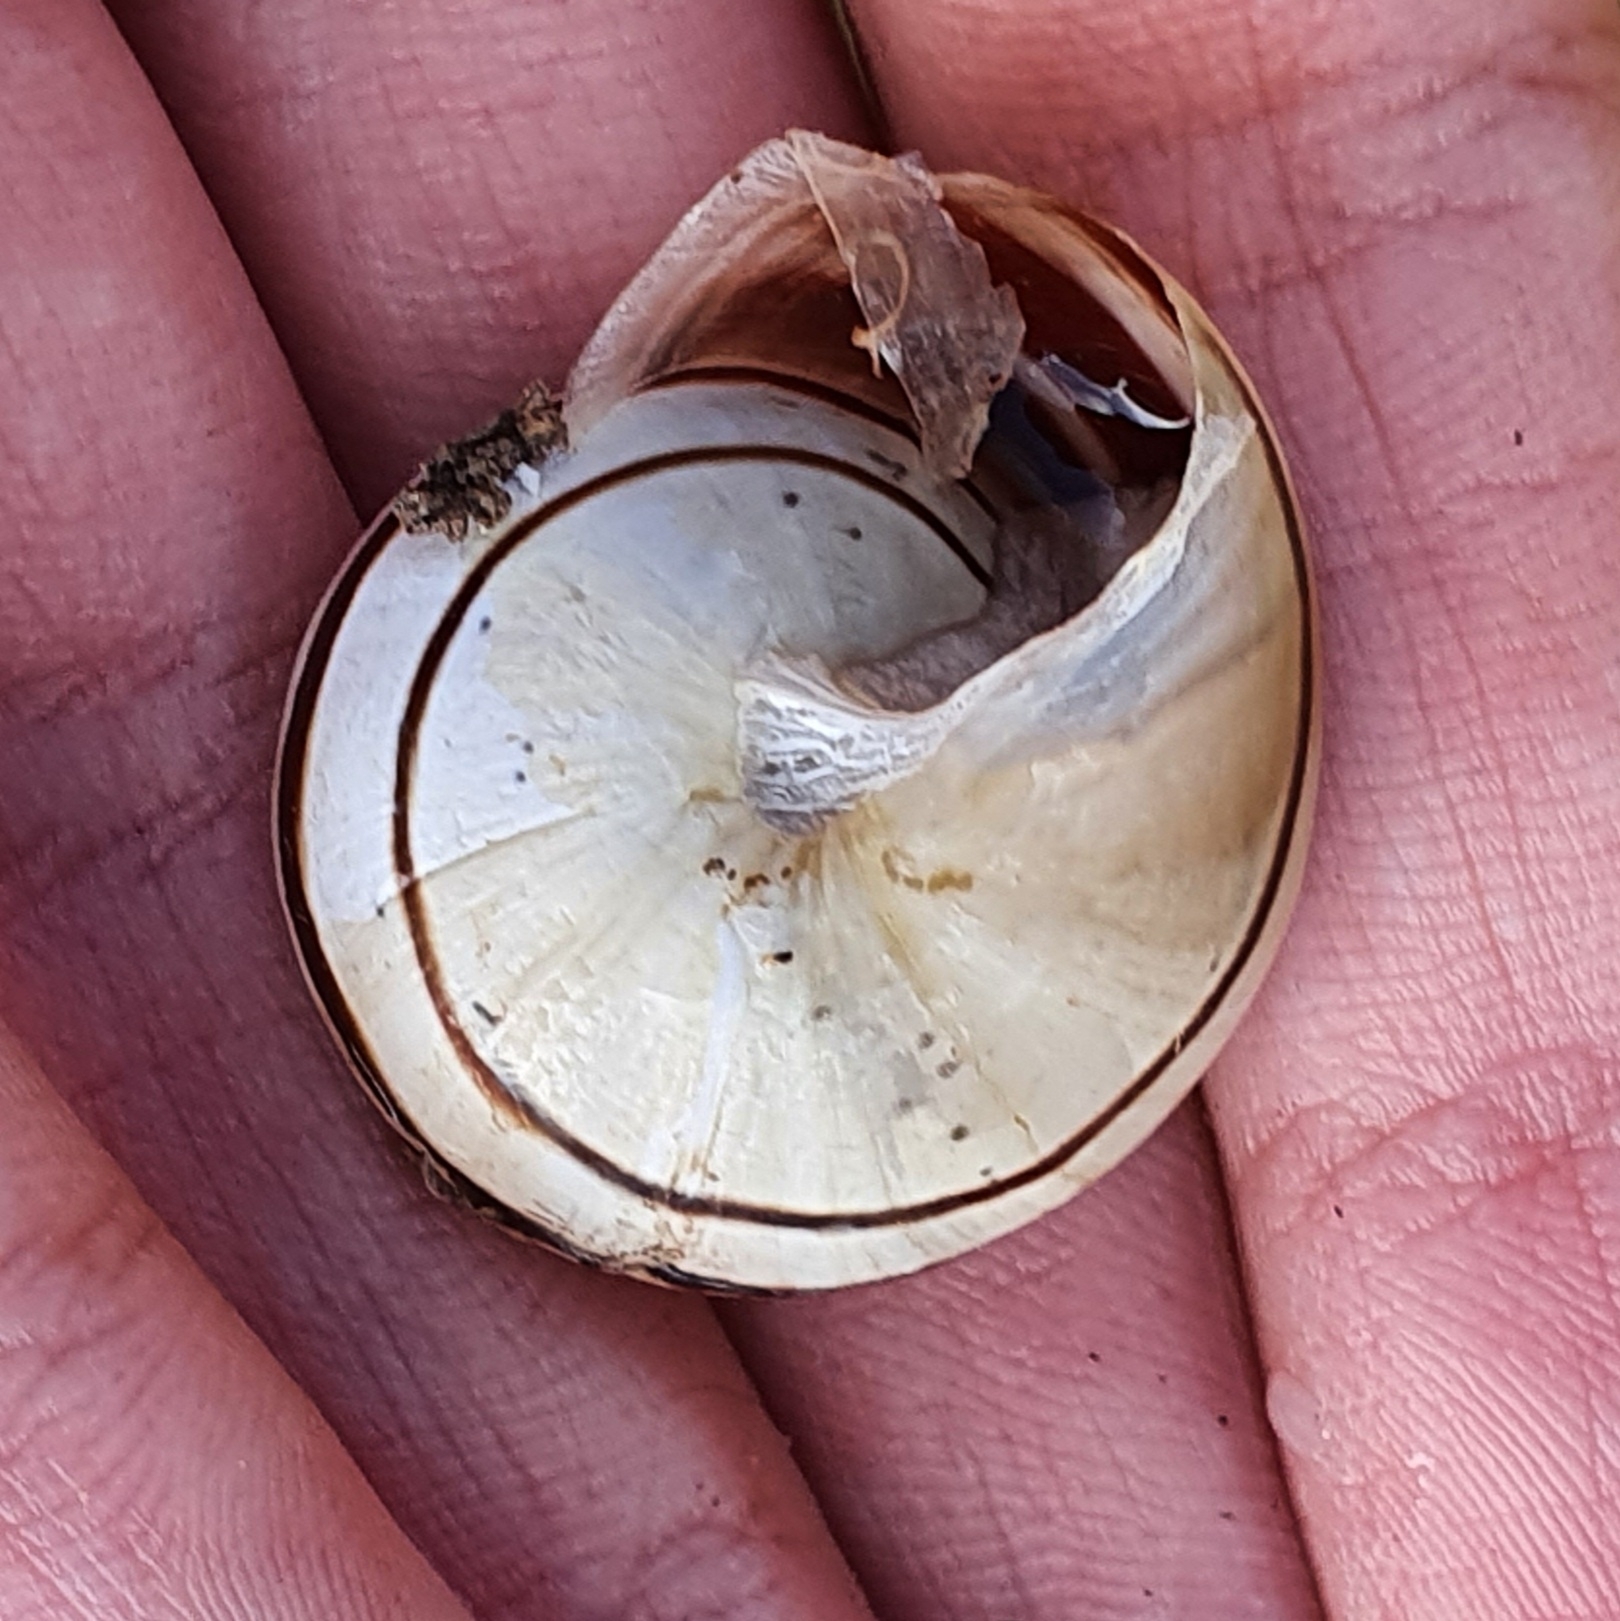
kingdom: Animalia
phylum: Mollusca
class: Gastropoda
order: Stylommatophora
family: Helicidae
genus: Eobania
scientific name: Eobania vermiculata
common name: Chocolateband snail
